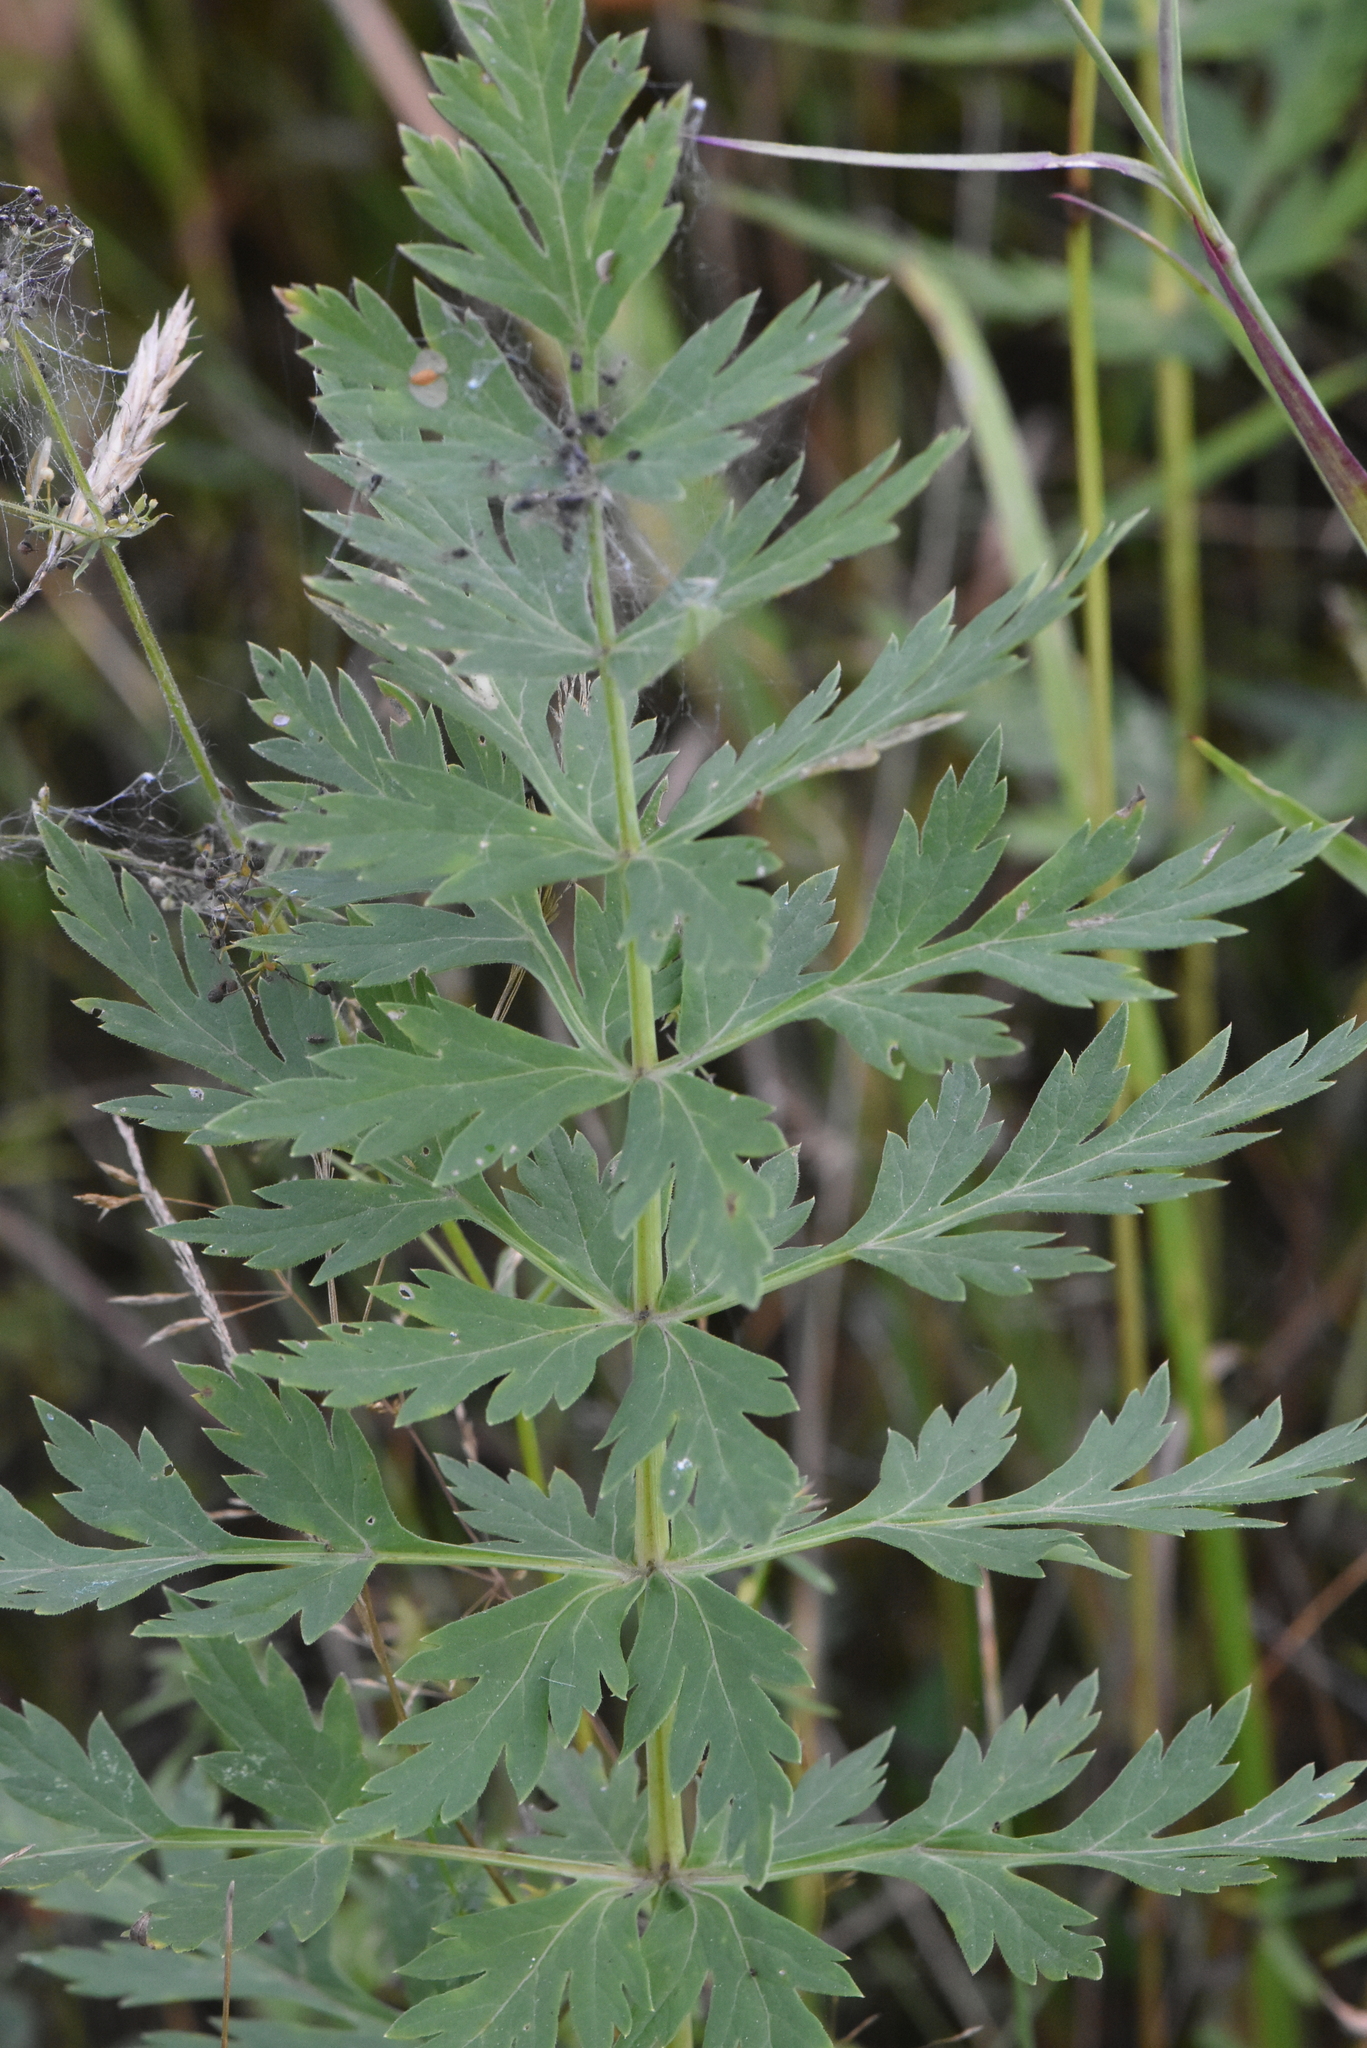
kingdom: Plantae
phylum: Tracheophyta
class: Magnoliopsida
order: Apiales
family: Apiaceae
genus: Seseli
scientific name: Seseli libanotis
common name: Mooncarrot
